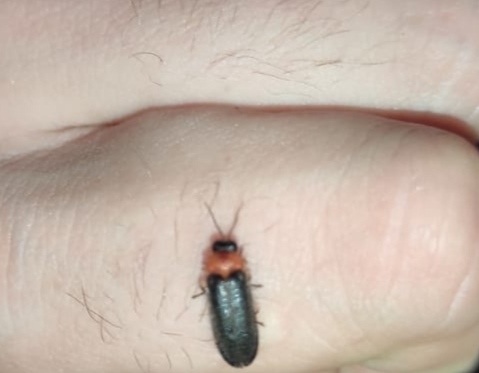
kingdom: Animalia
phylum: Arthropoda
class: Insecta
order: Coleoptera
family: Lampyridae
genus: Luciola
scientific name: Luciola lusitanica
